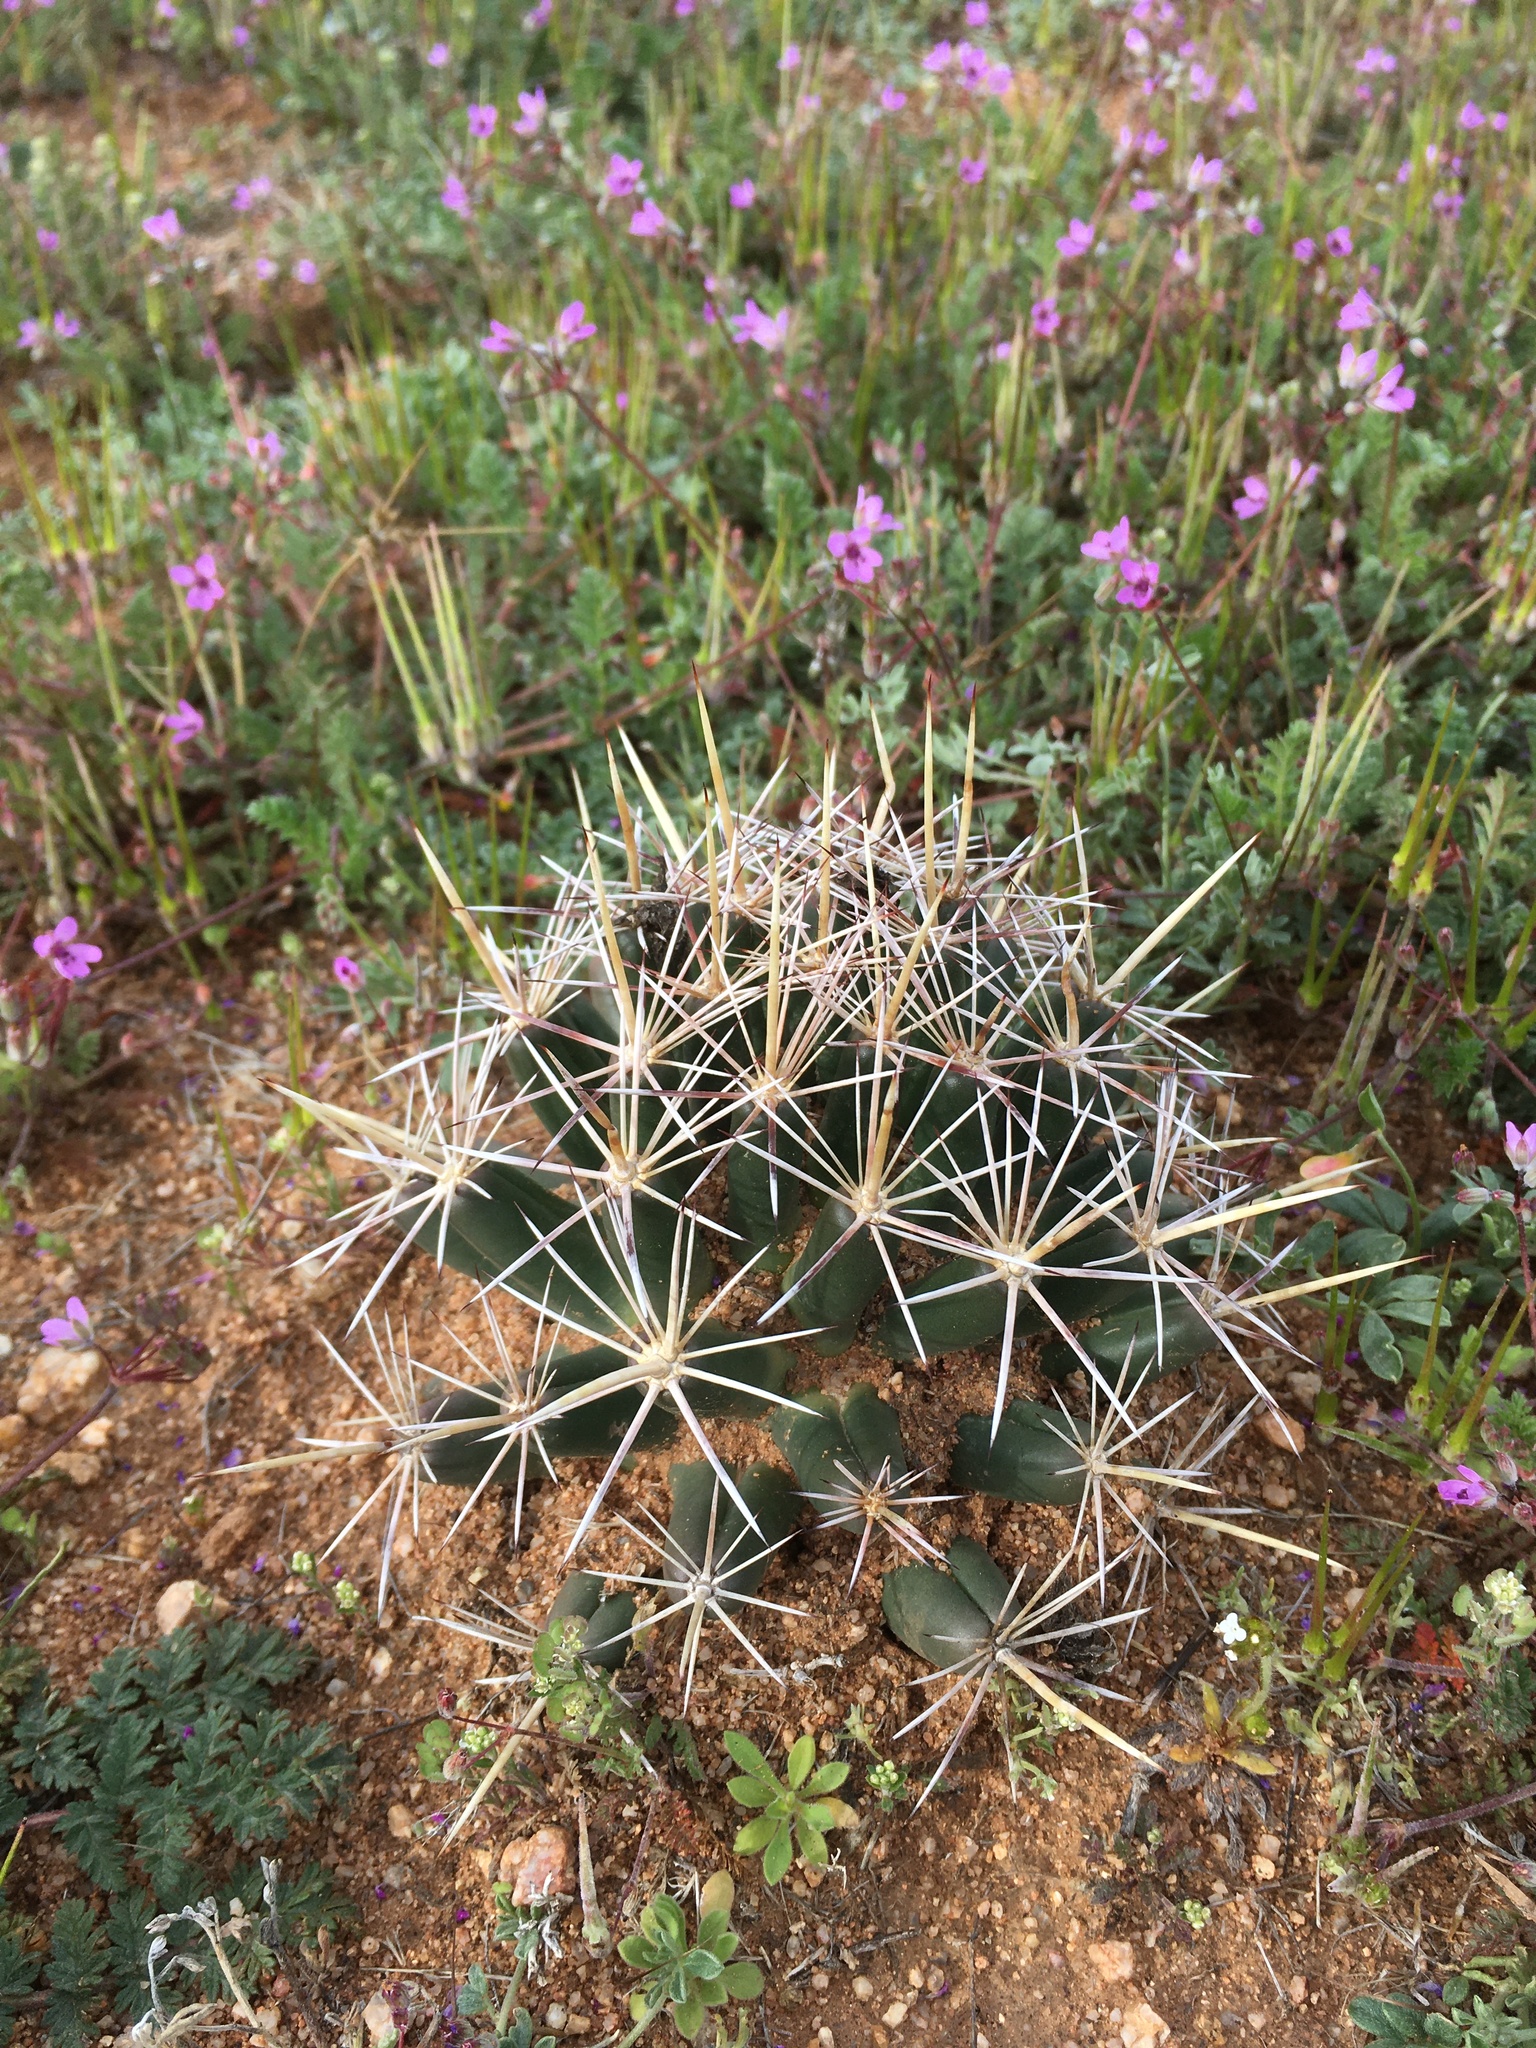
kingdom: Plantae
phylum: Tracheophyta
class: Magnoliopsida
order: Caryophyllales
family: Cactaceae
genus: Coryphantha
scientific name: Coryphantha robustispina
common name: Pima pineapple cactus
